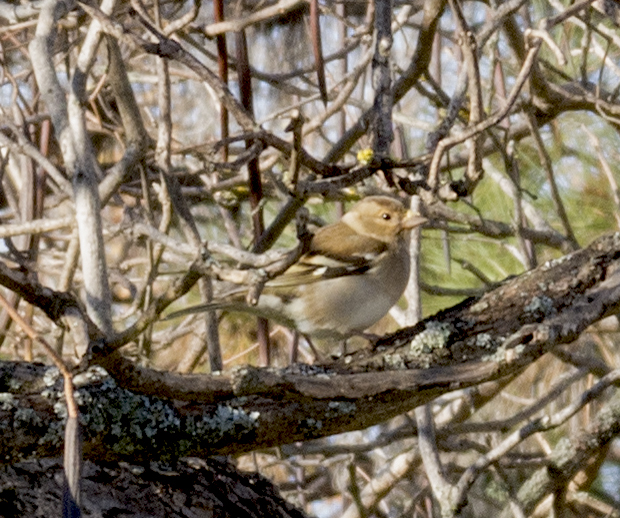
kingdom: Animalia
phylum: Chordata
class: Aves
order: Passeriformes
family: Fringillidae
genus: Fringilla
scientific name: Fringilla coelebs
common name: Common chaffinch
